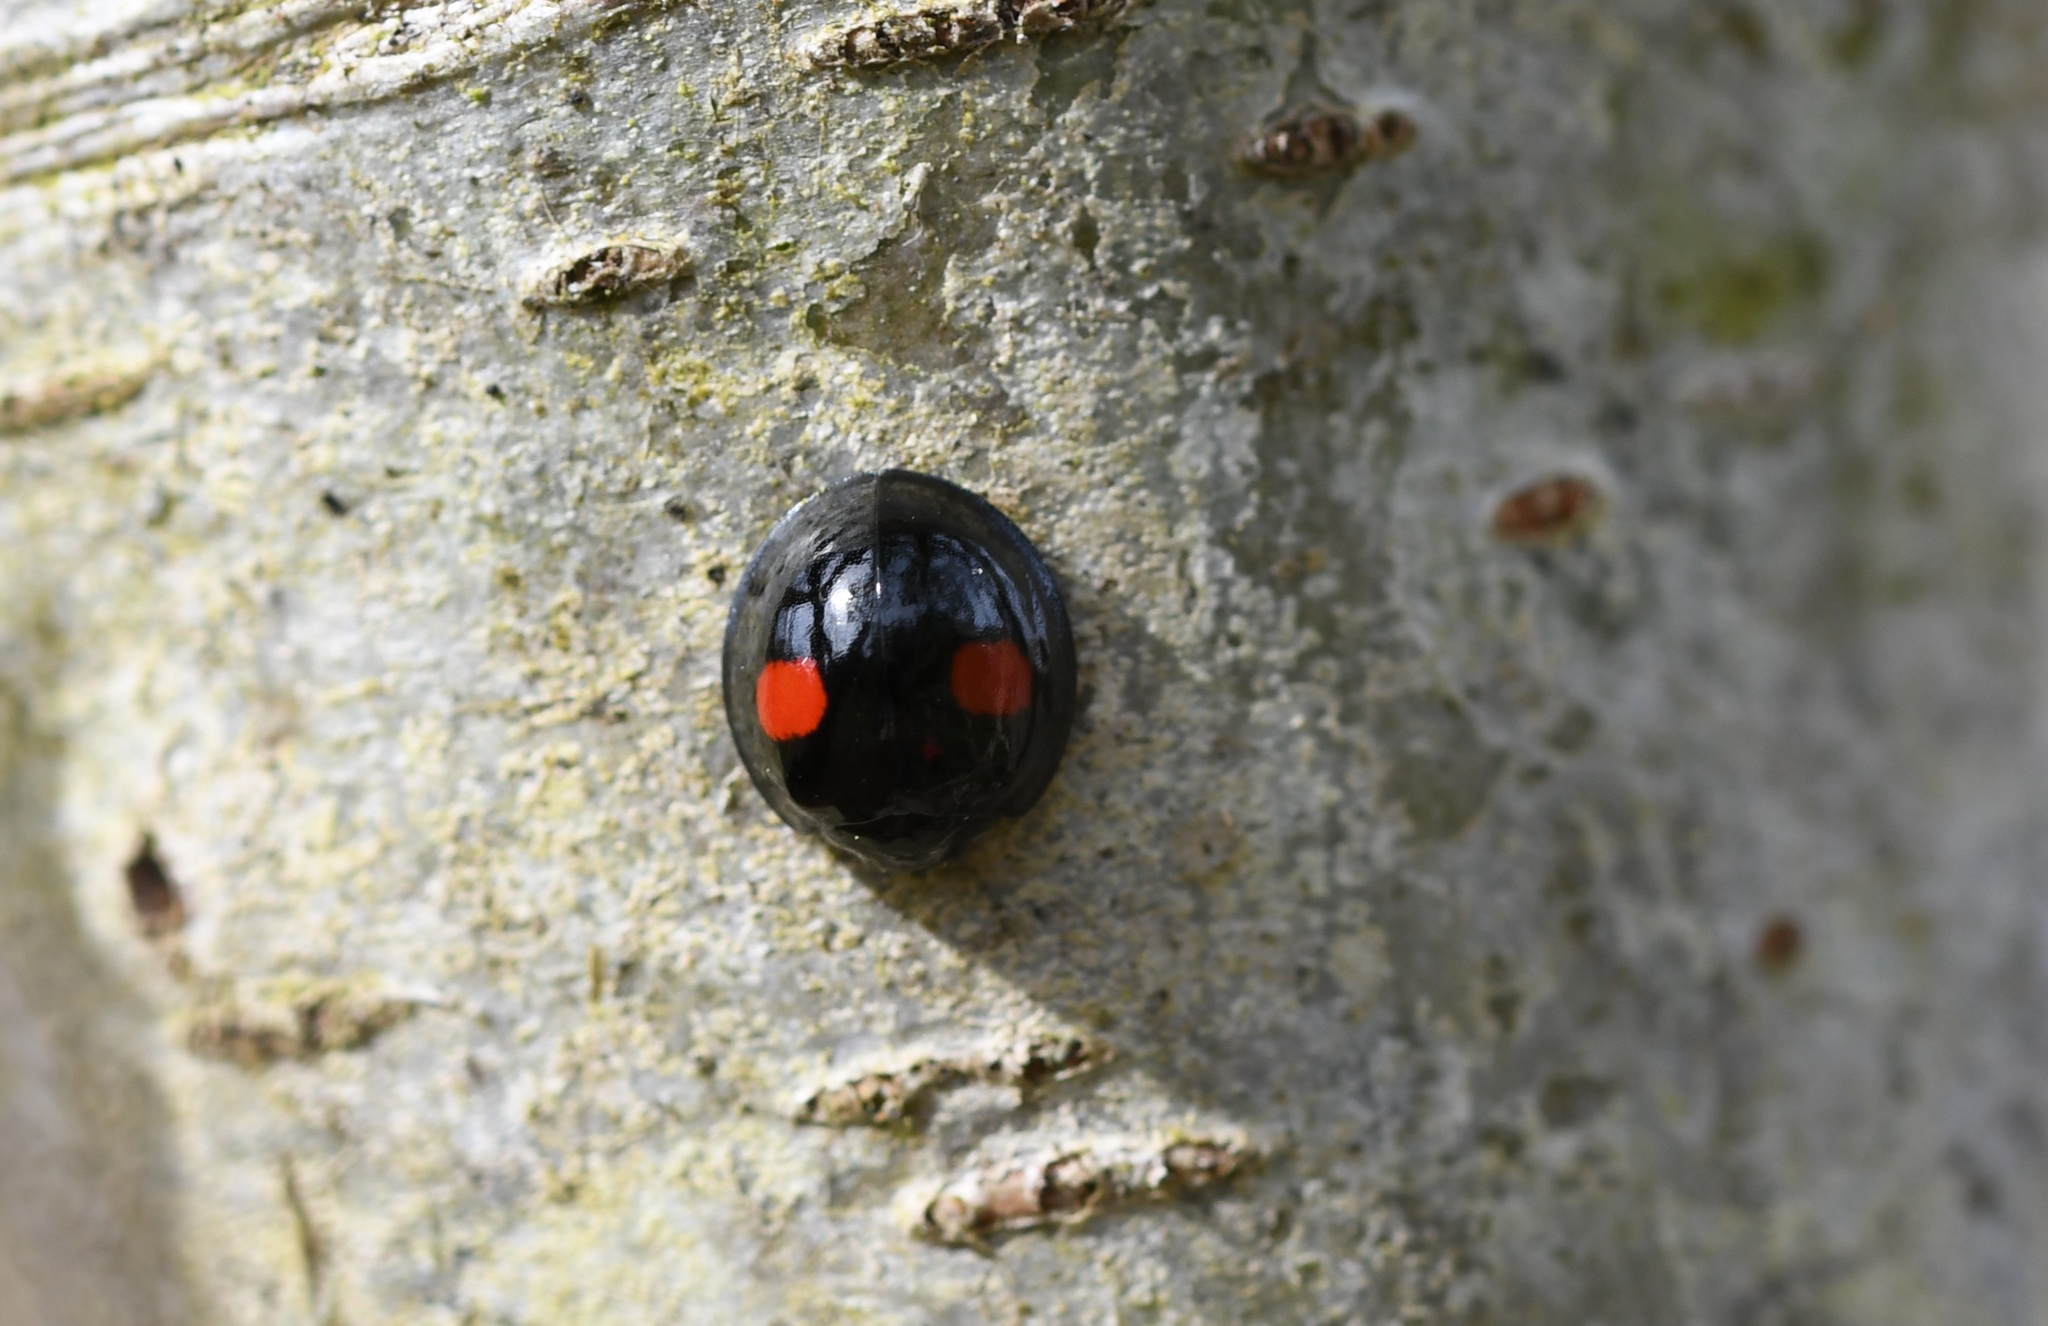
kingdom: Animalia
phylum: Arthropoda
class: Insecta
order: Coleoptera
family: Coccinellidae
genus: Chilocorus
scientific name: Chilocorus renipustulatus
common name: Kidney-spot ladybird
